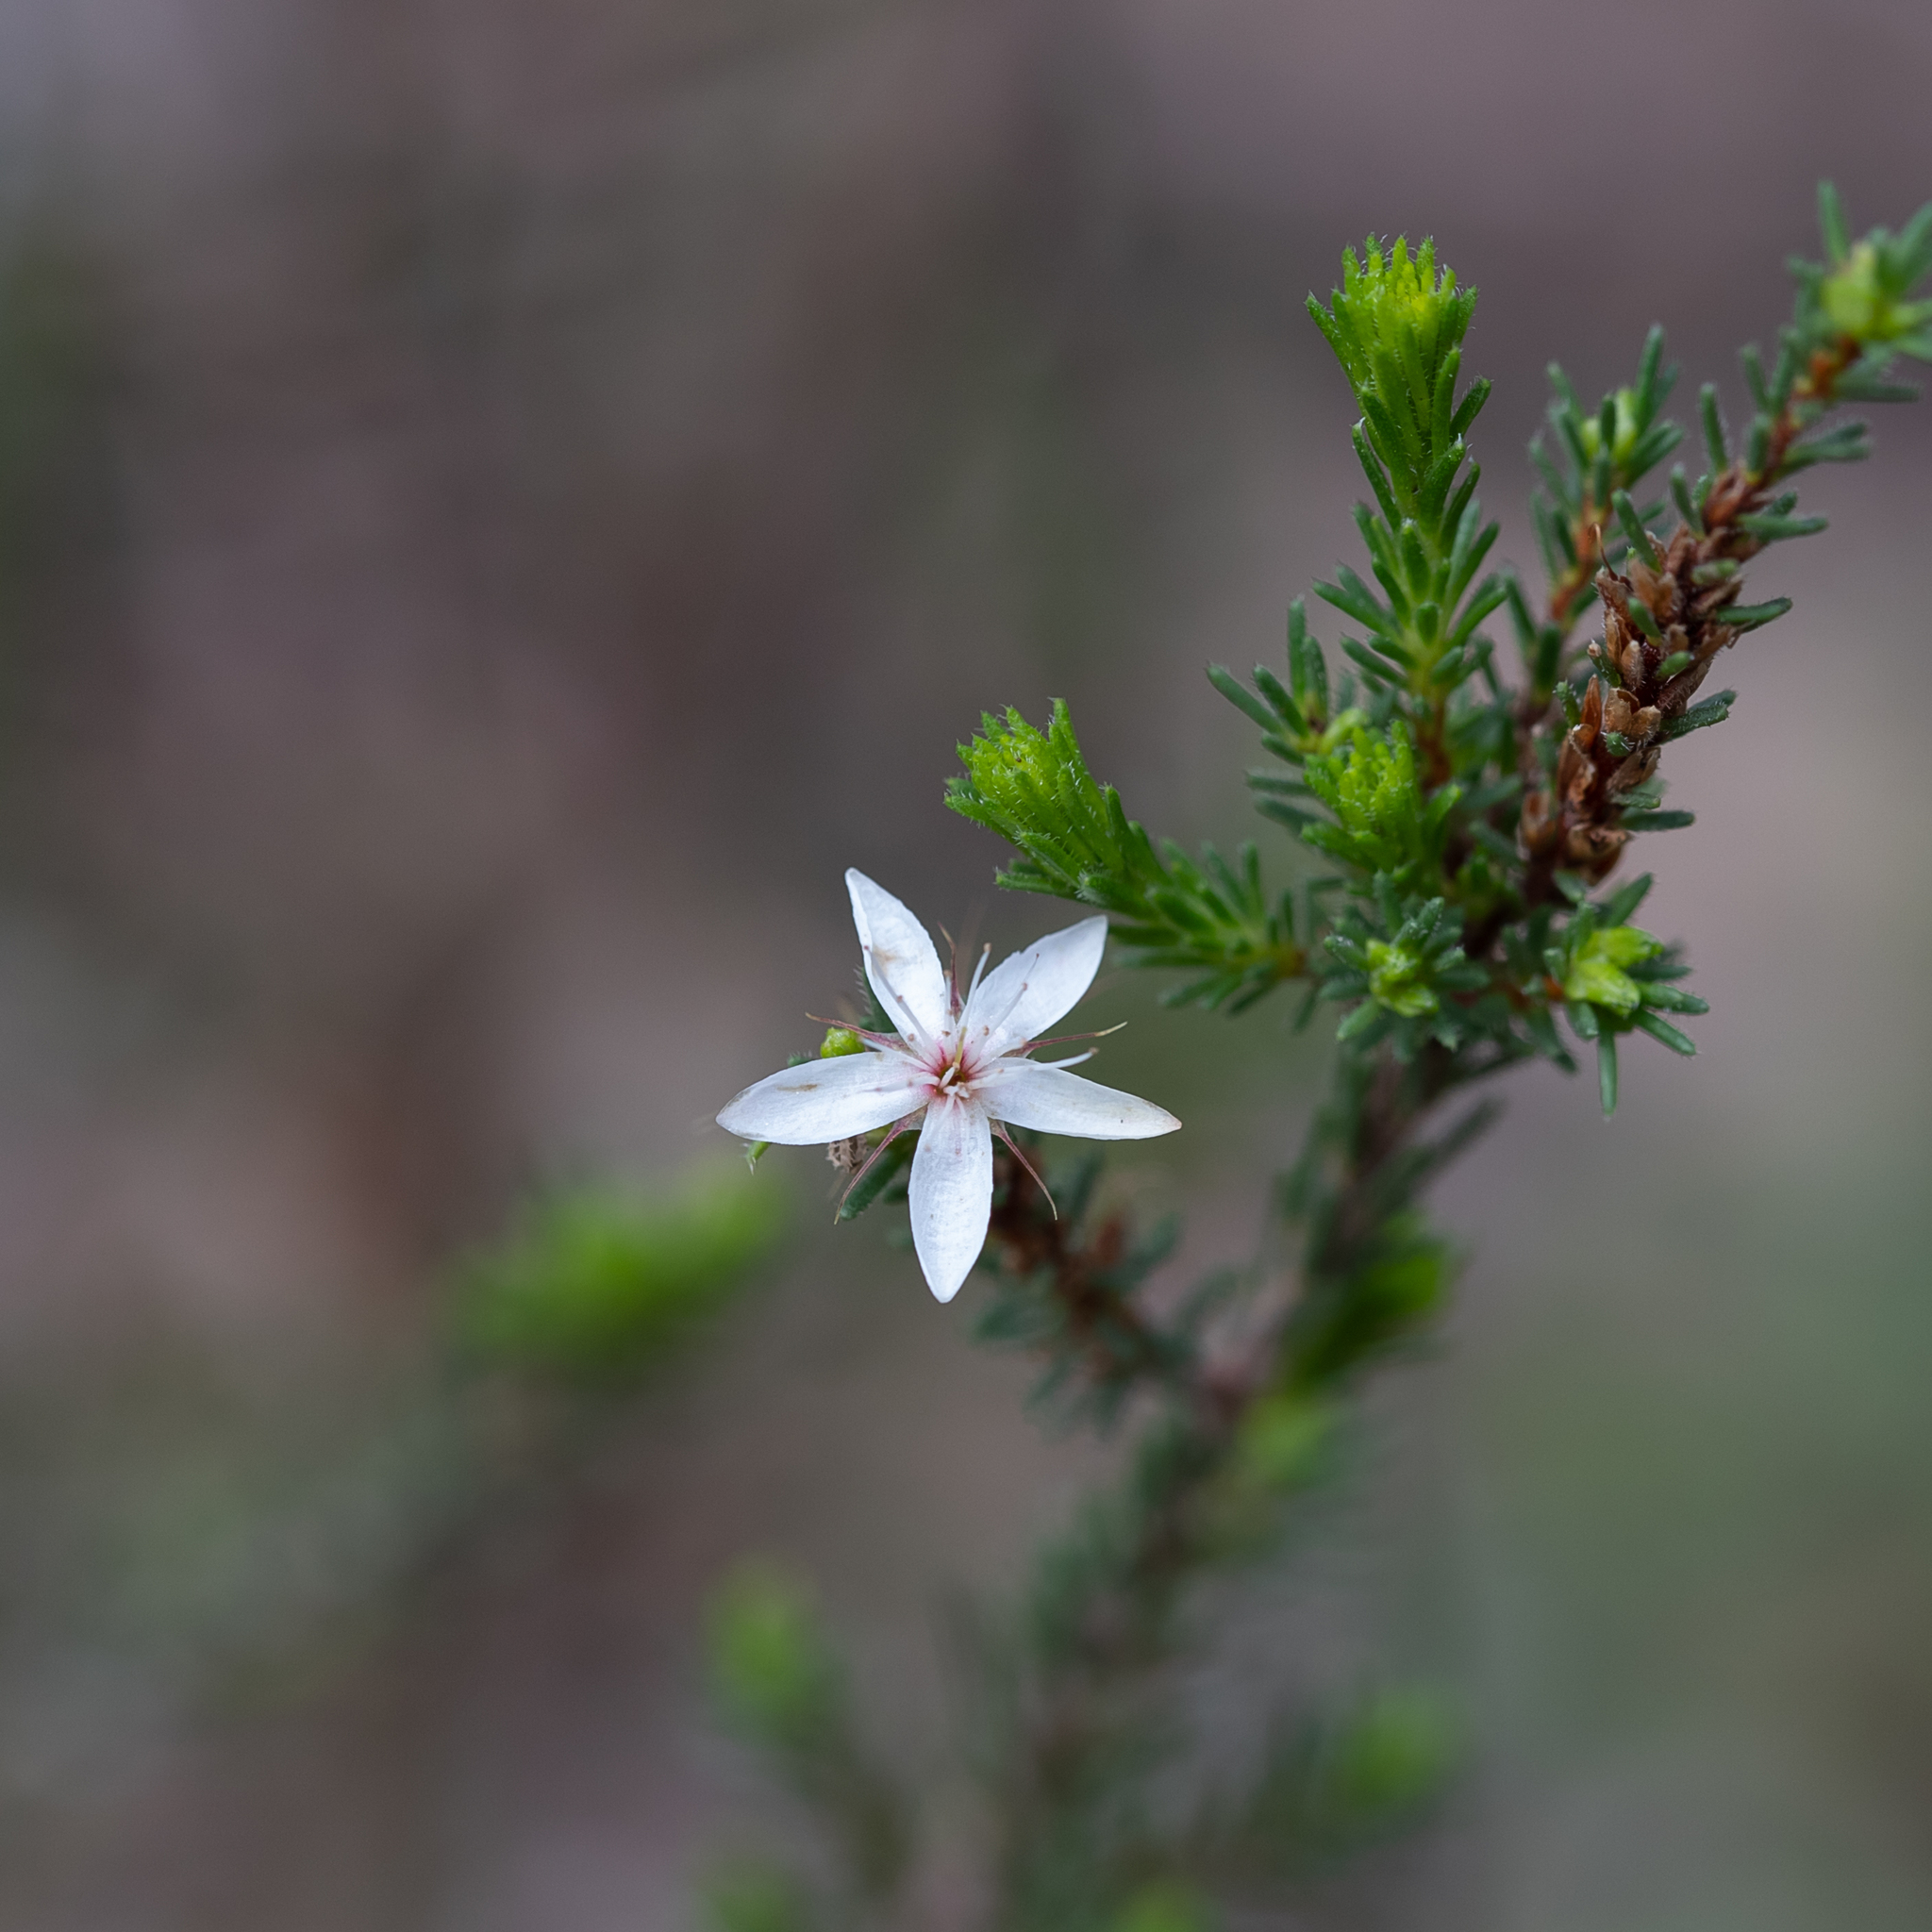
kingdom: Plantae
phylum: Tracheophyta
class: Magnoliopsida
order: Myrtales
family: Myrtaceae
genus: Calytrix
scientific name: Calytrix tetragona
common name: Common fringe myrtle
